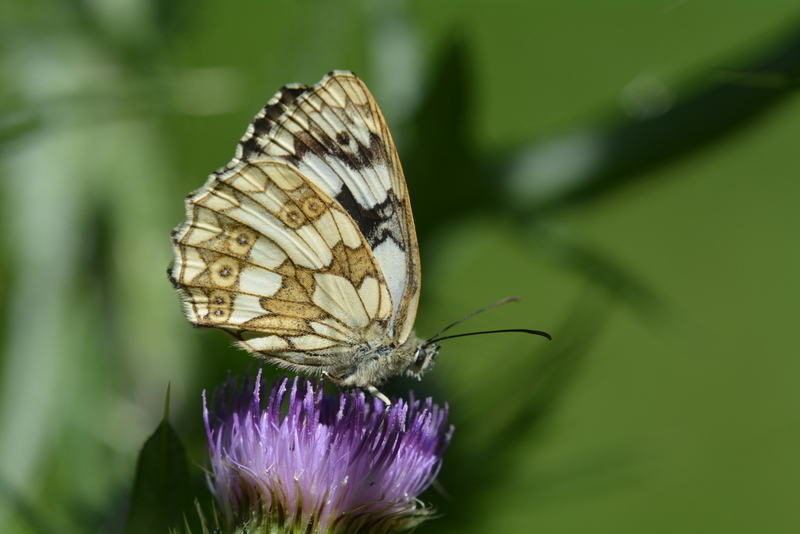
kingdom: Animalia
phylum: Arthropoda
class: Insecta
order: Lepidoptera
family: Nymphalidae
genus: Melanargia
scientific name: Melanargia galathea
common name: Marbled white
